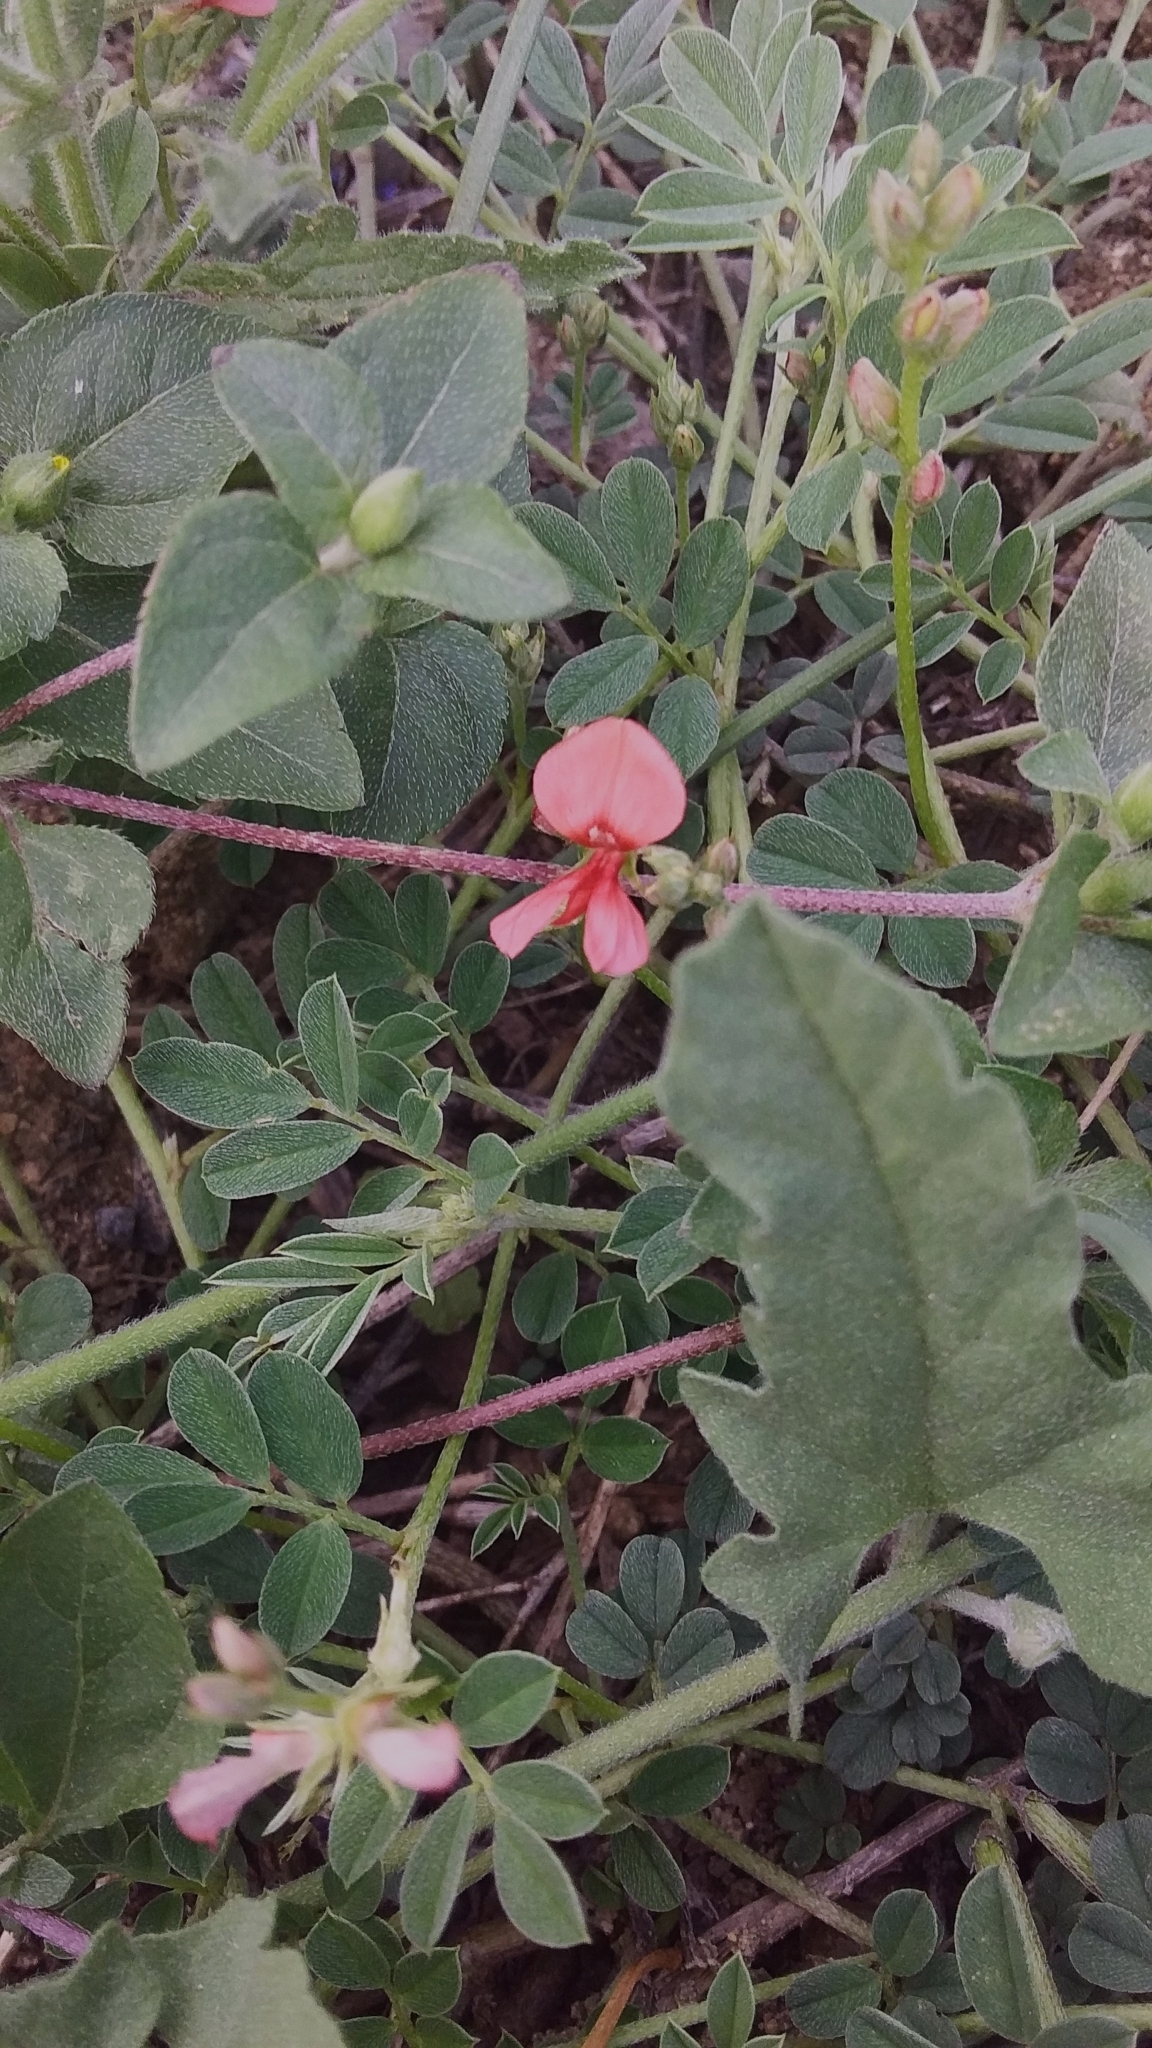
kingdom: Plantae
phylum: Tracheophyta
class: Magnoliopsida
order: Fabales
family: Fabaceae
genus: Indigofera
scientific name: Indigofera miniata
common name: Coast indigo
